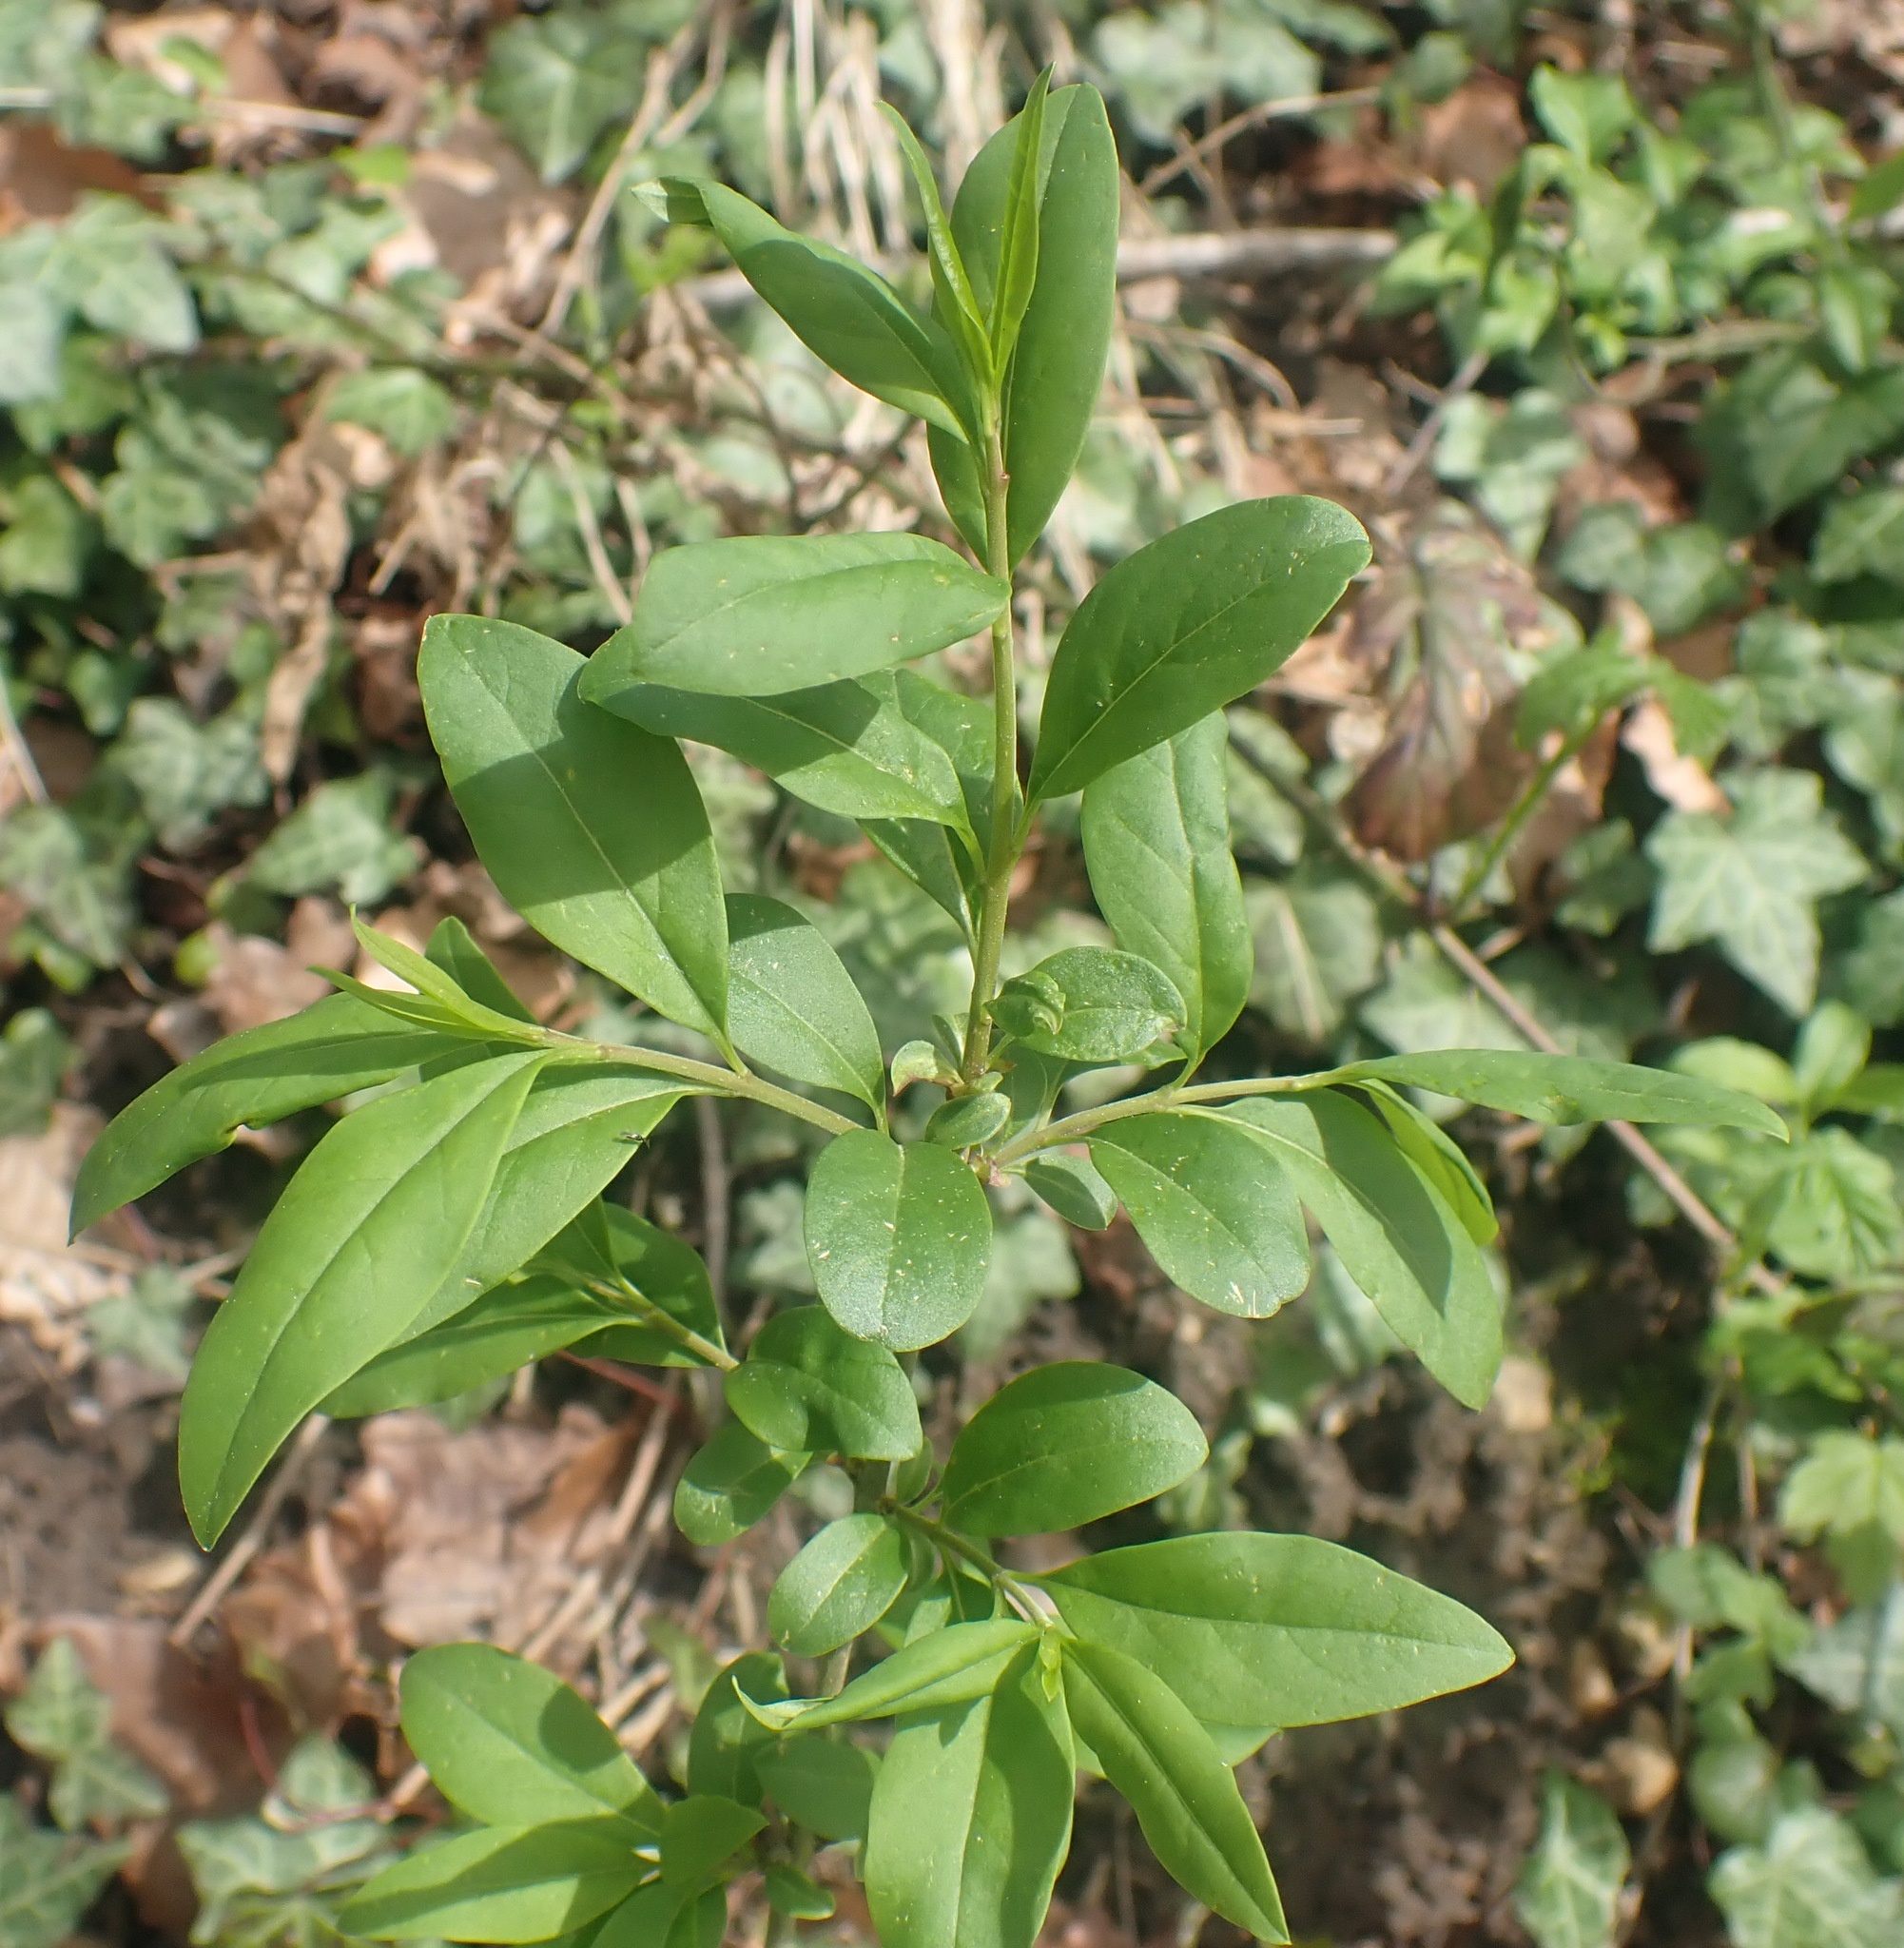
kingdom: Plantae
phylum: Tracheophyta
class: Magnoliopsida
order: Lamiales
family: Oleaceae
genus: Ligustrum
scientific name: Ligustrum vulgare
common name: Wild privet
